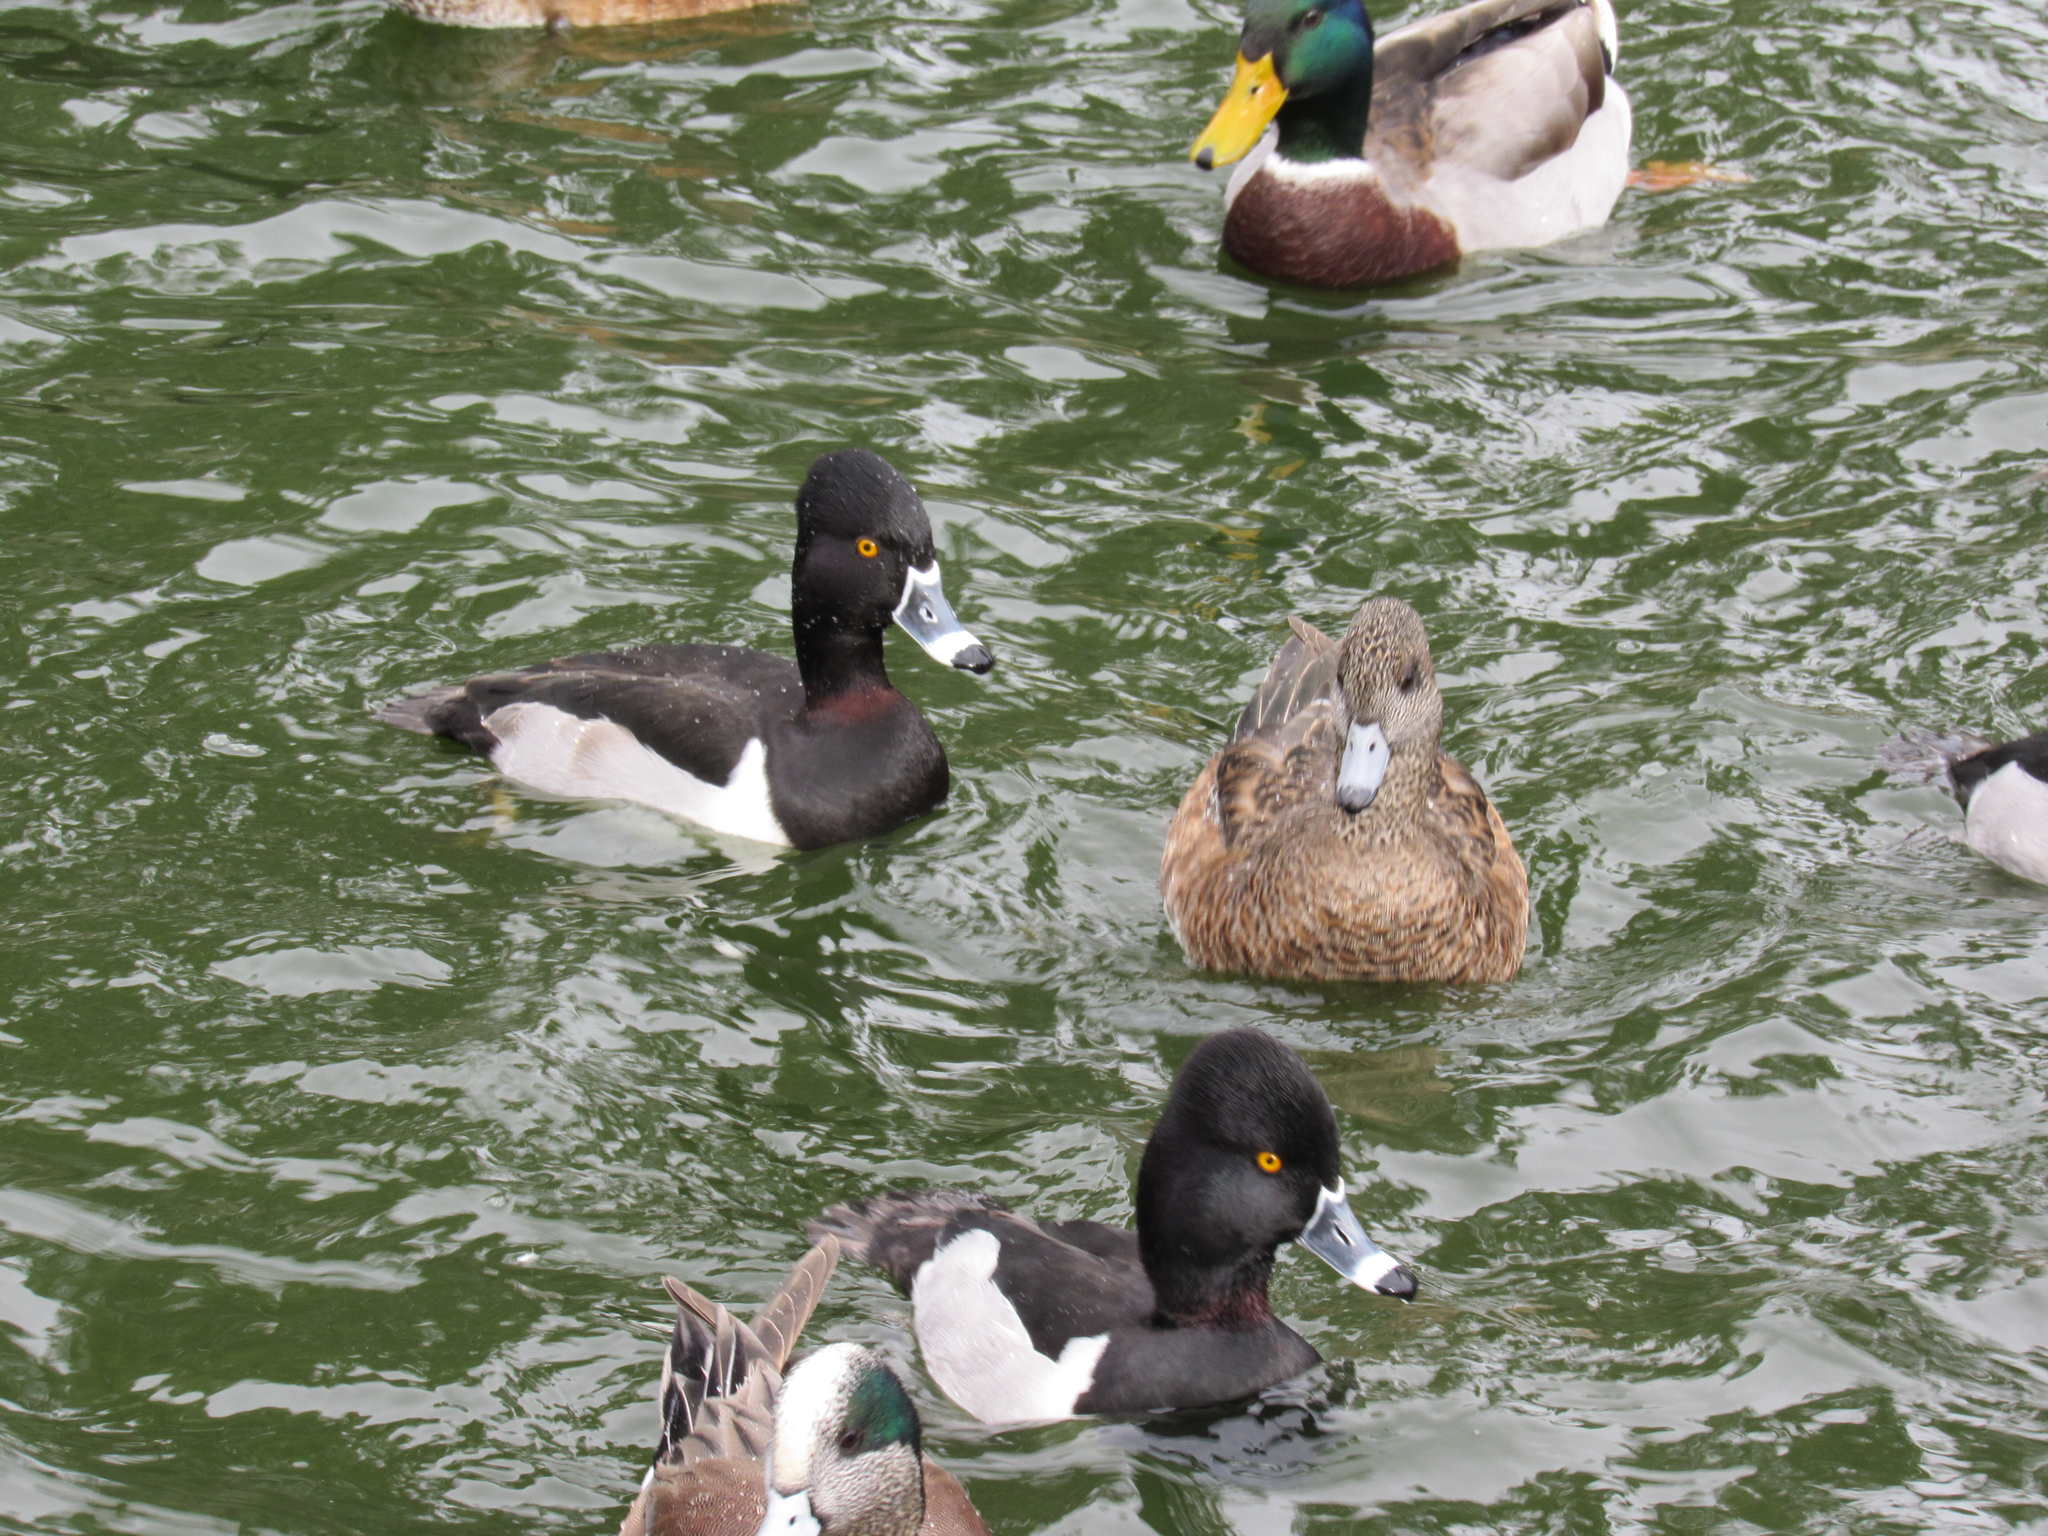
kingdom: Animalia
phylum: Chordata
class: Aves
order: Anseriformes
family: Anatidae
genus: Aythya
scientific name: Aythya collaris
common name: Ring-necked duck
